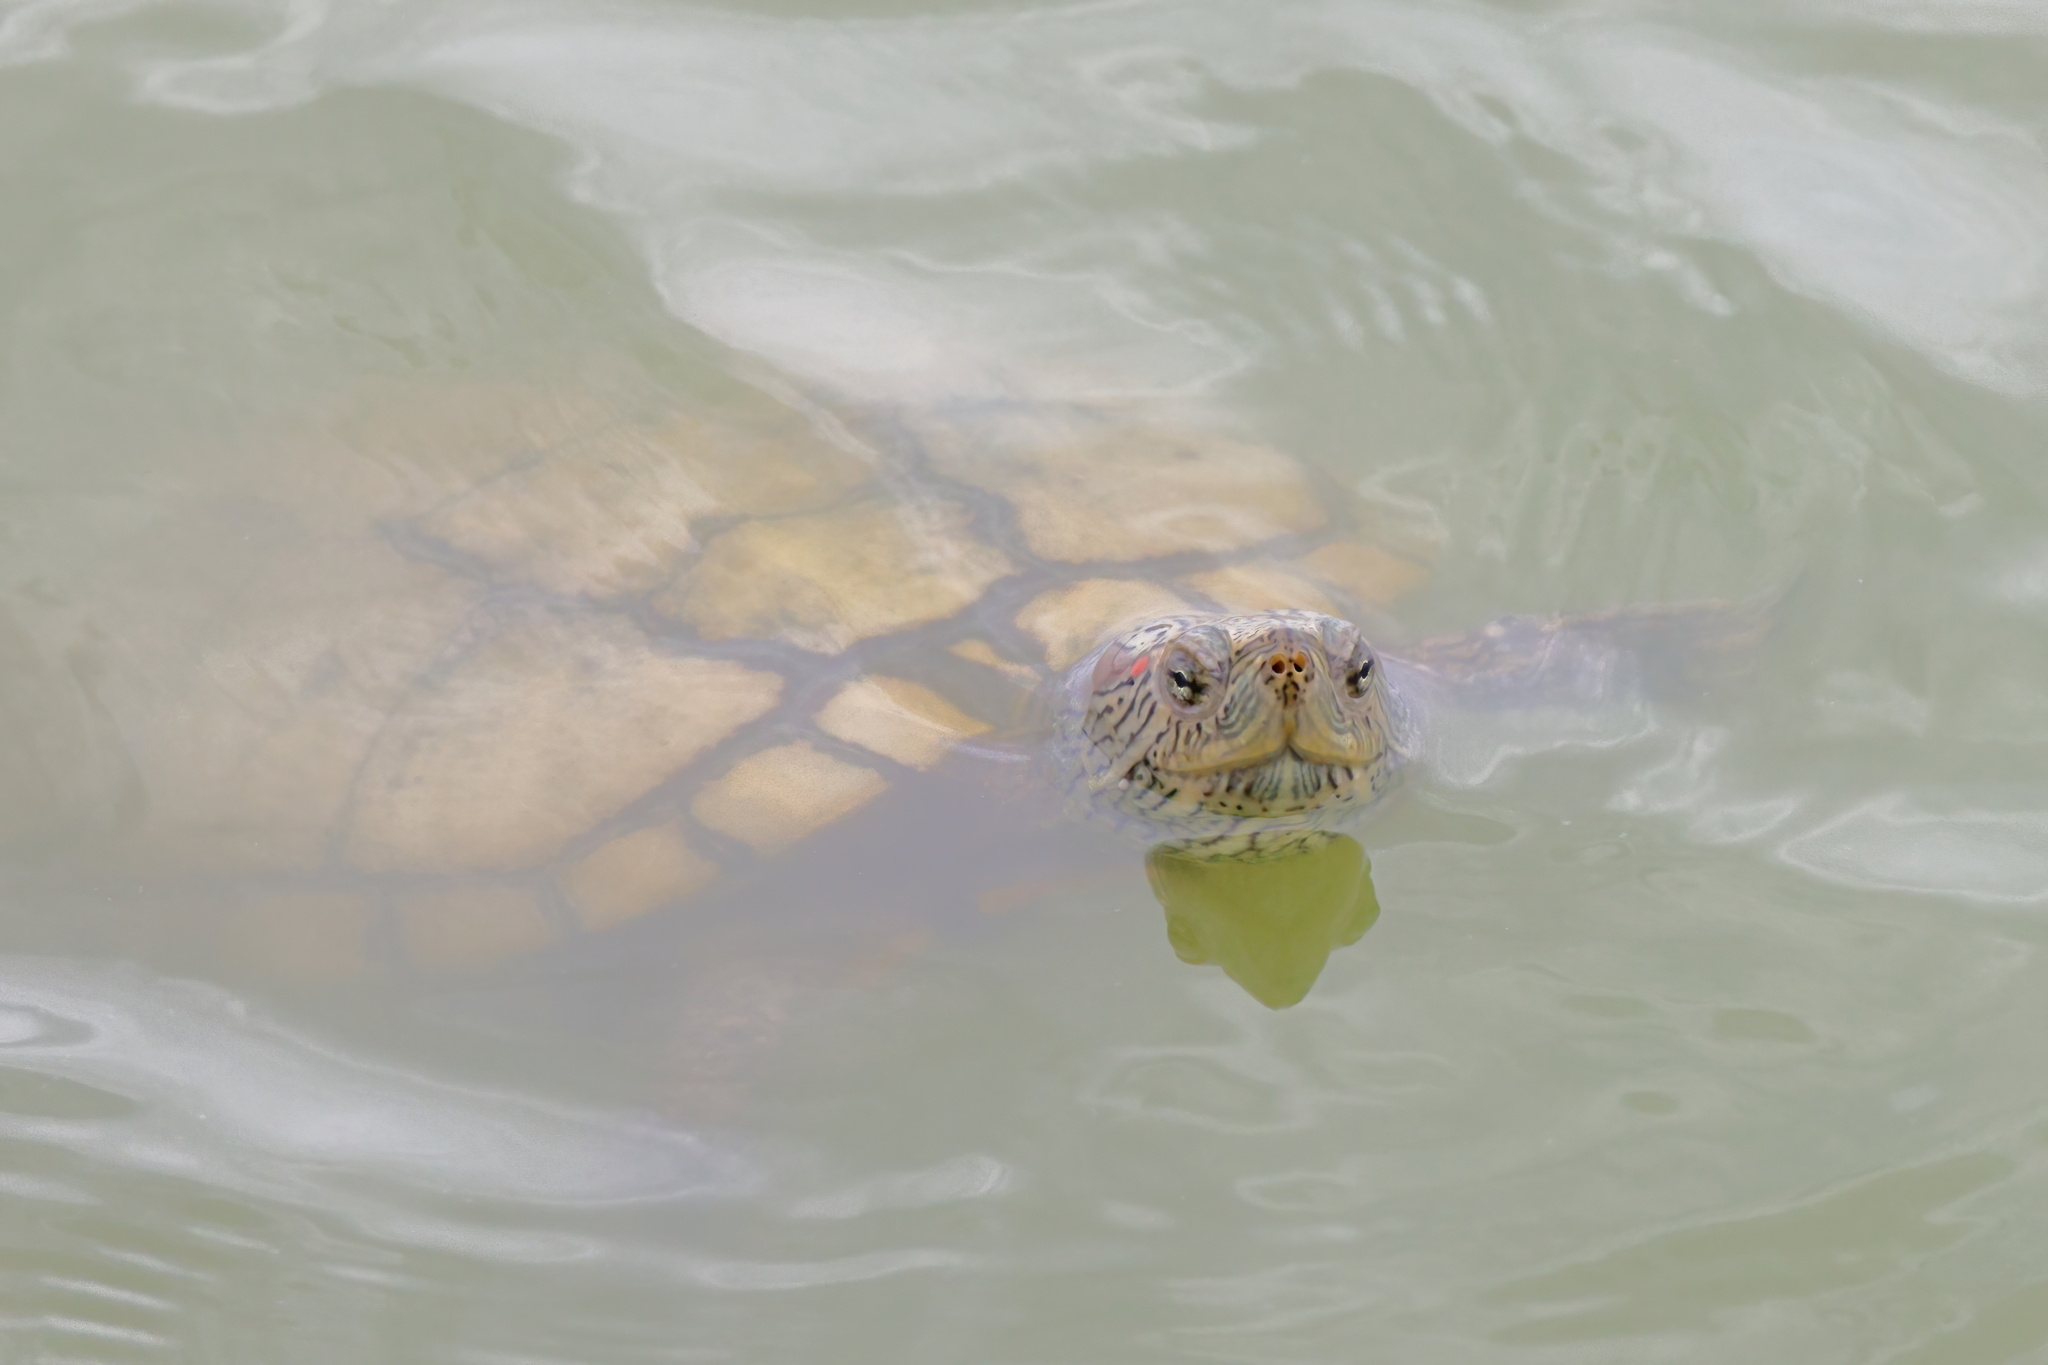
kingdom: Animalia
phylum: Chordata
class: Testudines
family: Emydidae
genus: Trachemys
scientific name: Trachemys scripta
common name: Slider
